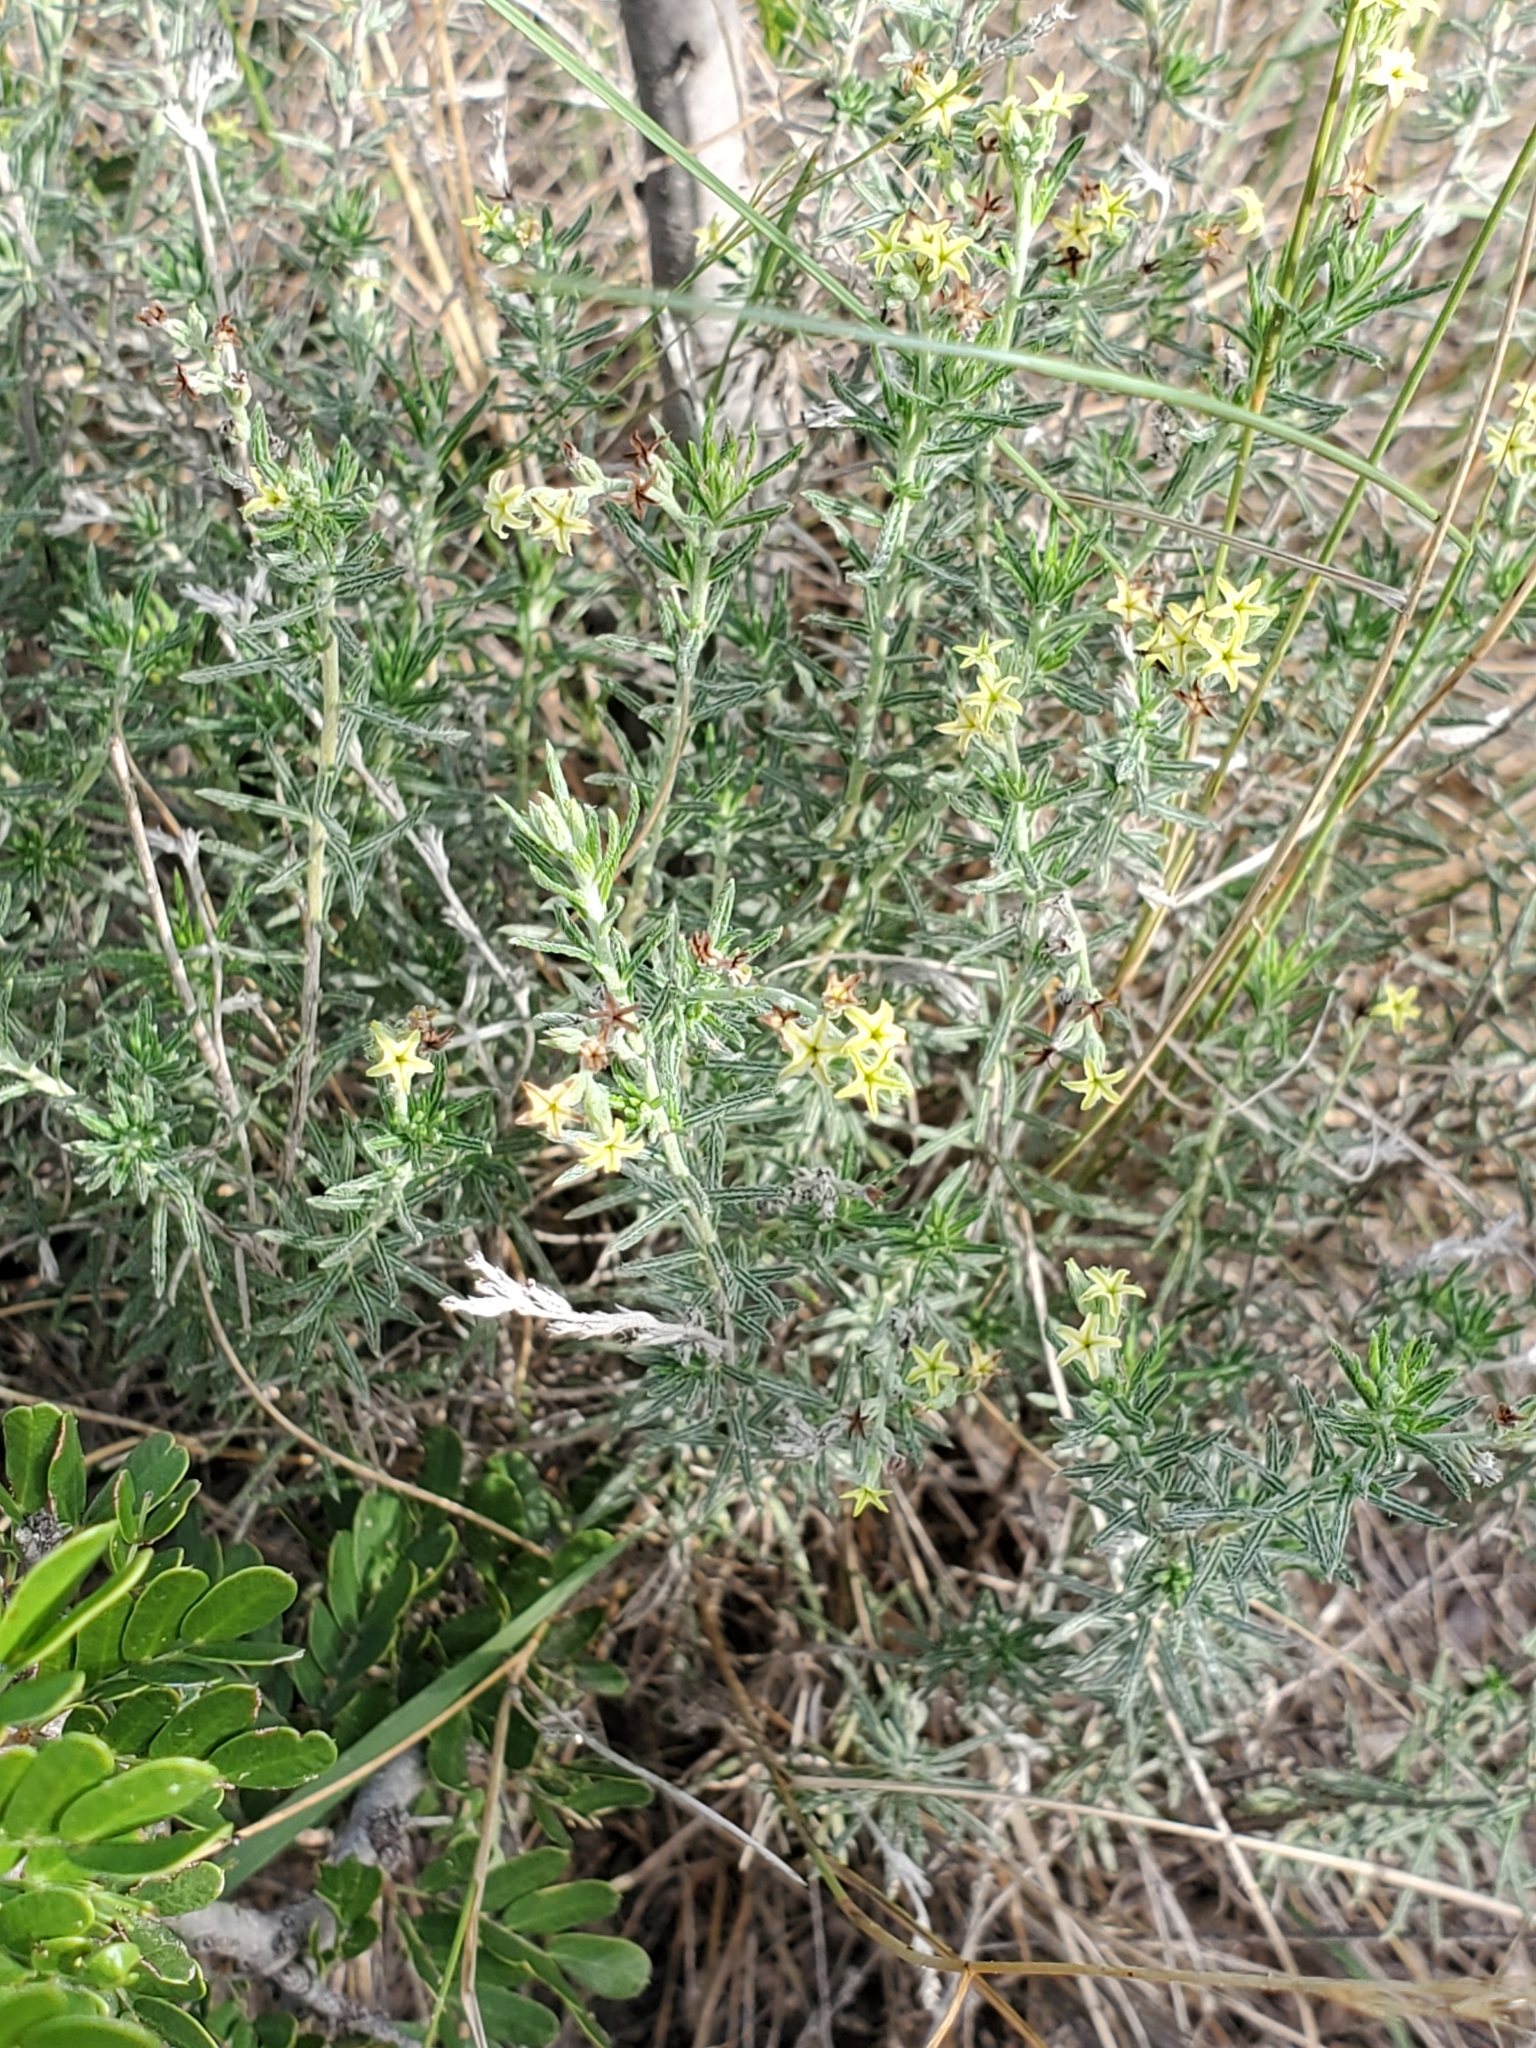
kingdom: Plantae
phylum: Tracheophyta
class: Magnoliopsida
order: Boraginales
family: Heliotropiaceae
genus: Euploca
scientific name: Euploca torreyi
